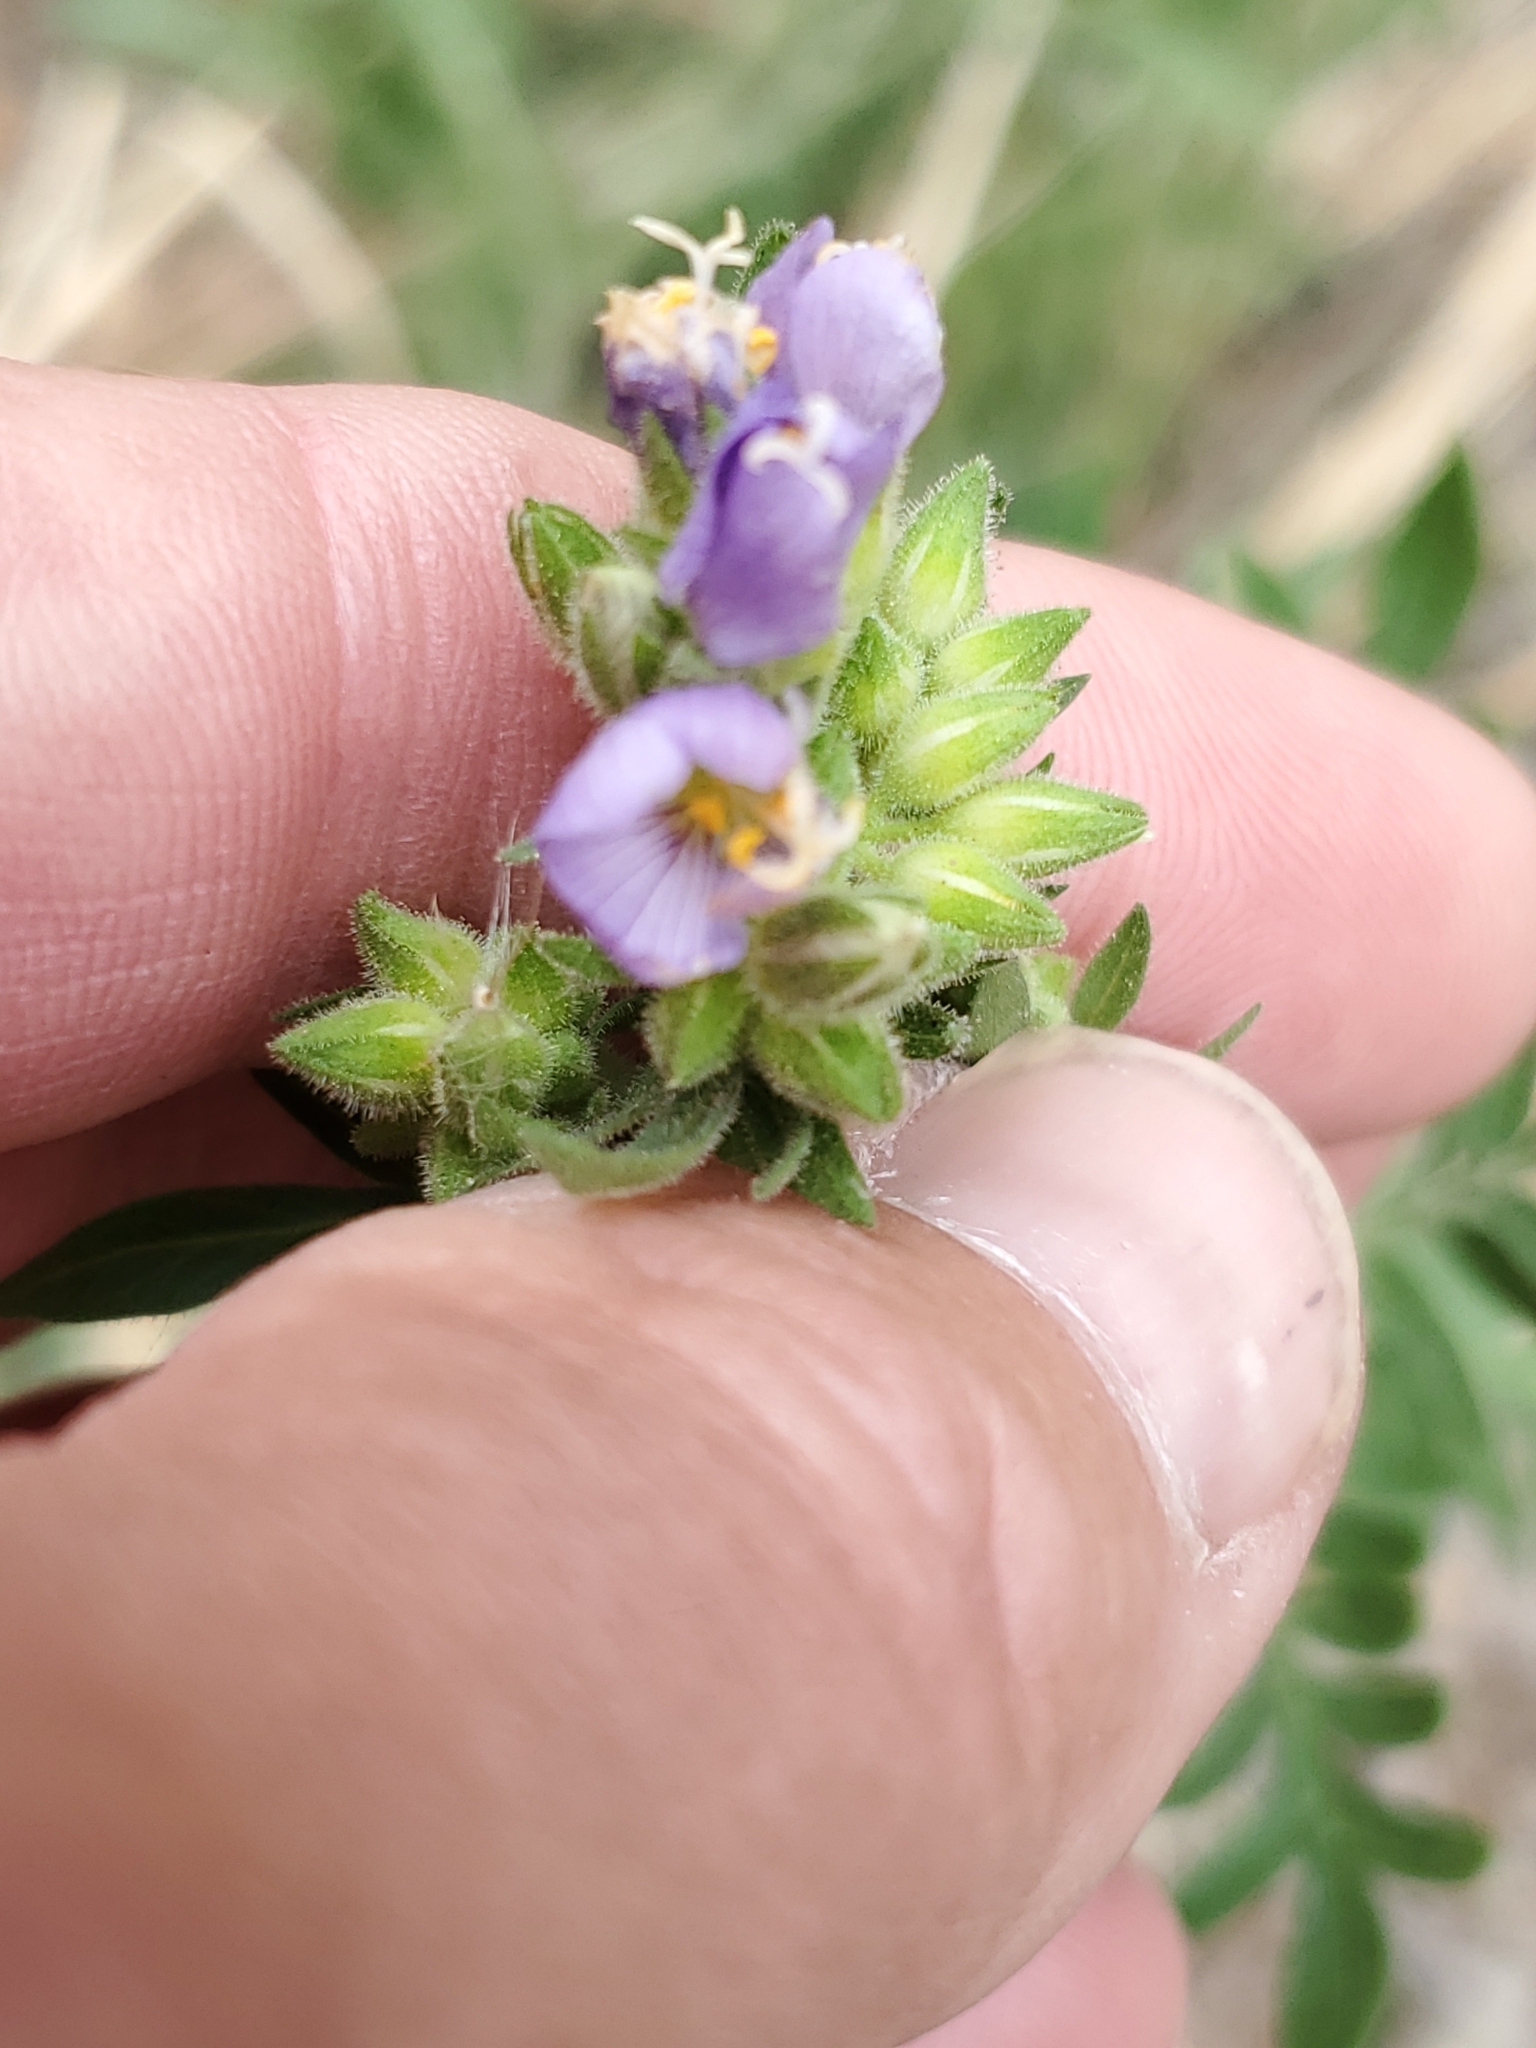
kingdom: Plantae
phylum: Tracheophyta
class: Magnoliopsida
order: Ericales
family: Polemoniaceae
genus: Polemonium
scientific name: Polemonium foliosissimum
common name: Leafy jacob's-ladder
